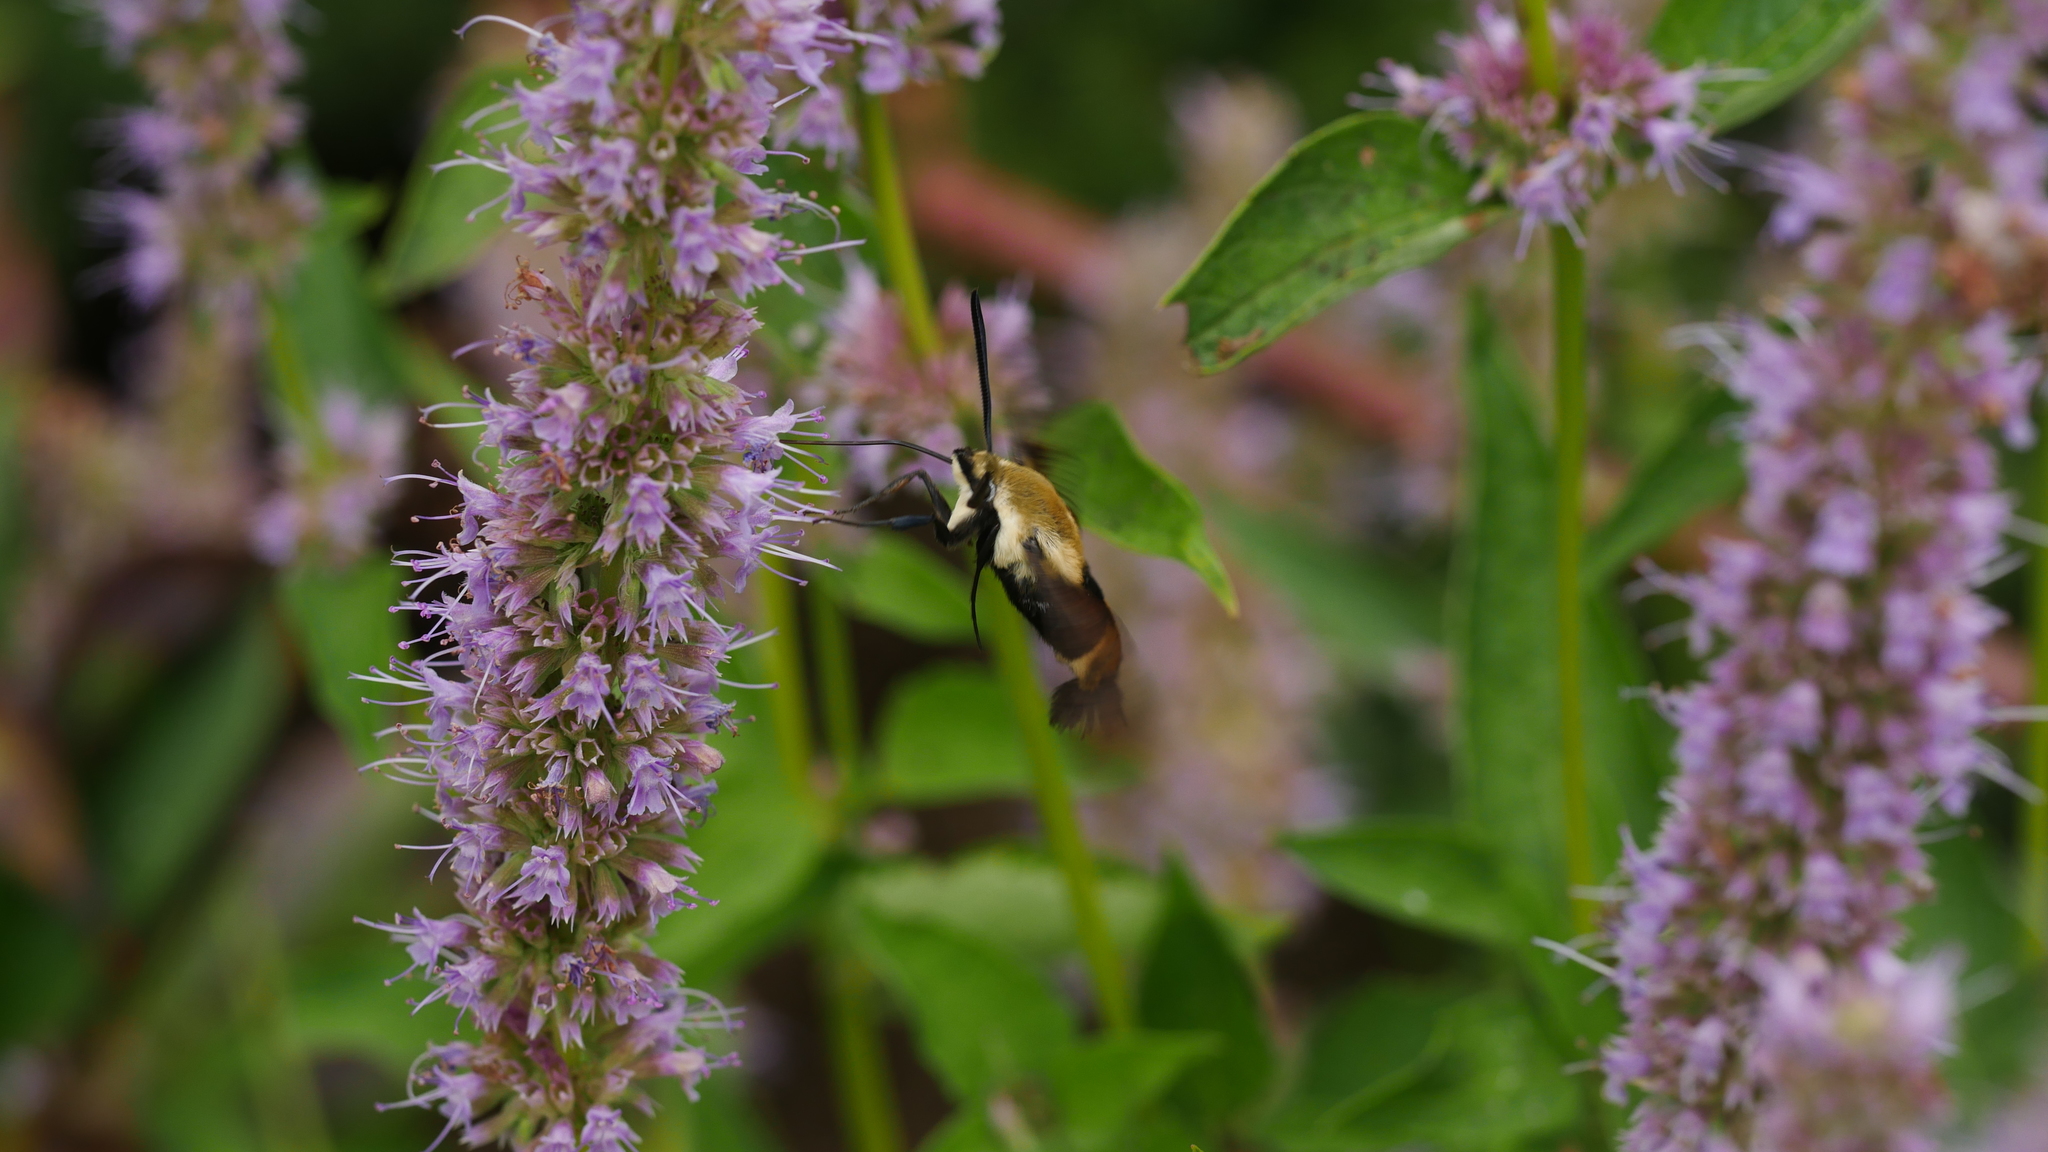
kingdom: Animalia
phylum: Arthropoda
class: Insecta
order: Lepidoptera
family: Sphingidae
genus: Hemaris
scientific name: Hemaris diffinis
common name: Bumblebee moth
